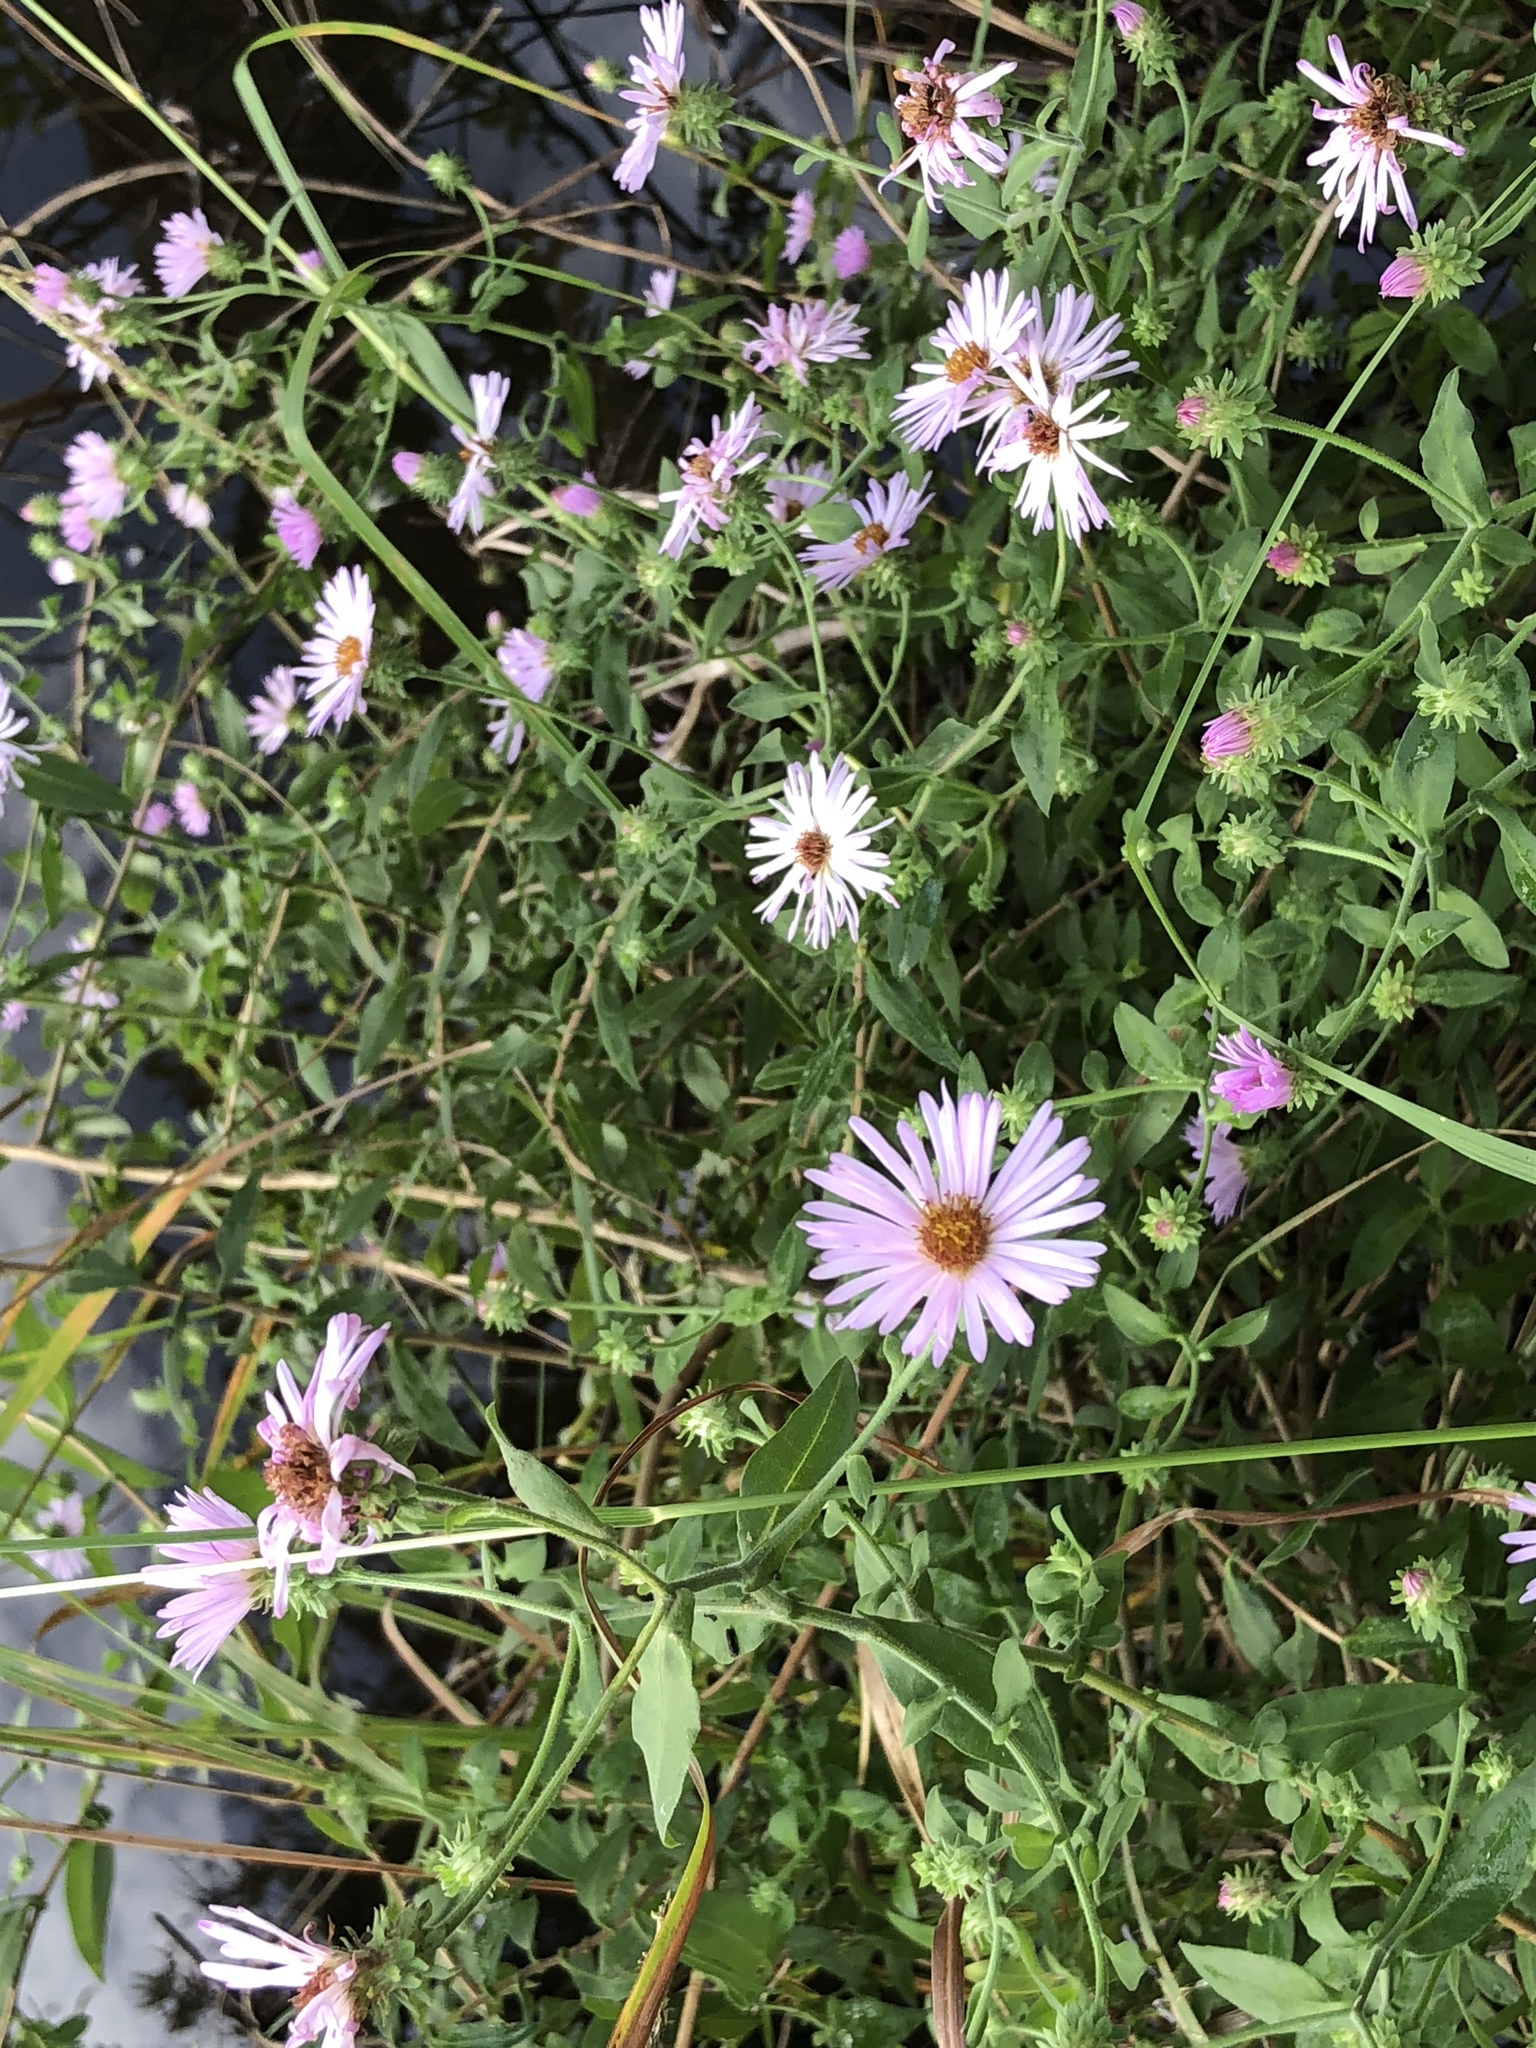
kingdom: Plantae
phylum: Tracheophyta
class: Magnoliopsida
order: Asterales
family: Asteraceae
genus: Ampelaster
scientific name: Ampelaster carolinianus
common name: Climbing aster
